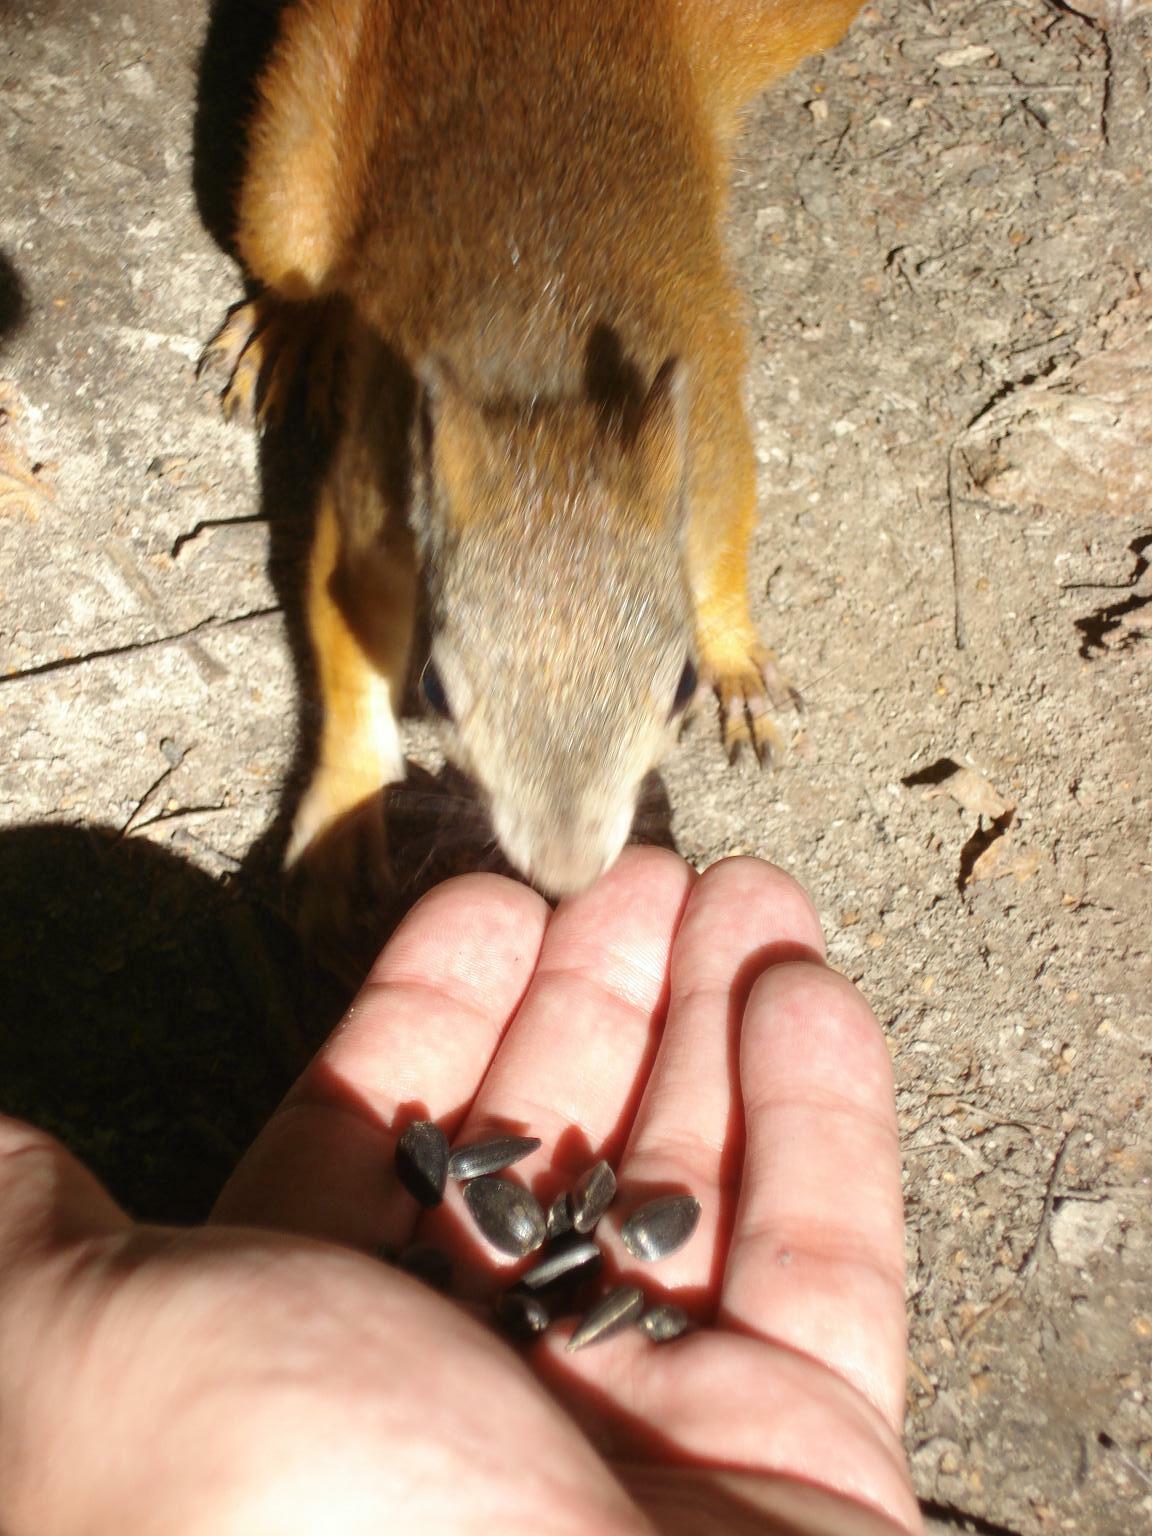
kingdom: Animalia
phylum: Chordata
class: Mammalia
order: Rodentia
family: Sciuridae
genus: Sciurus
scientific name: Sciurus vulgaris
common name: Eurasian red squirrel
